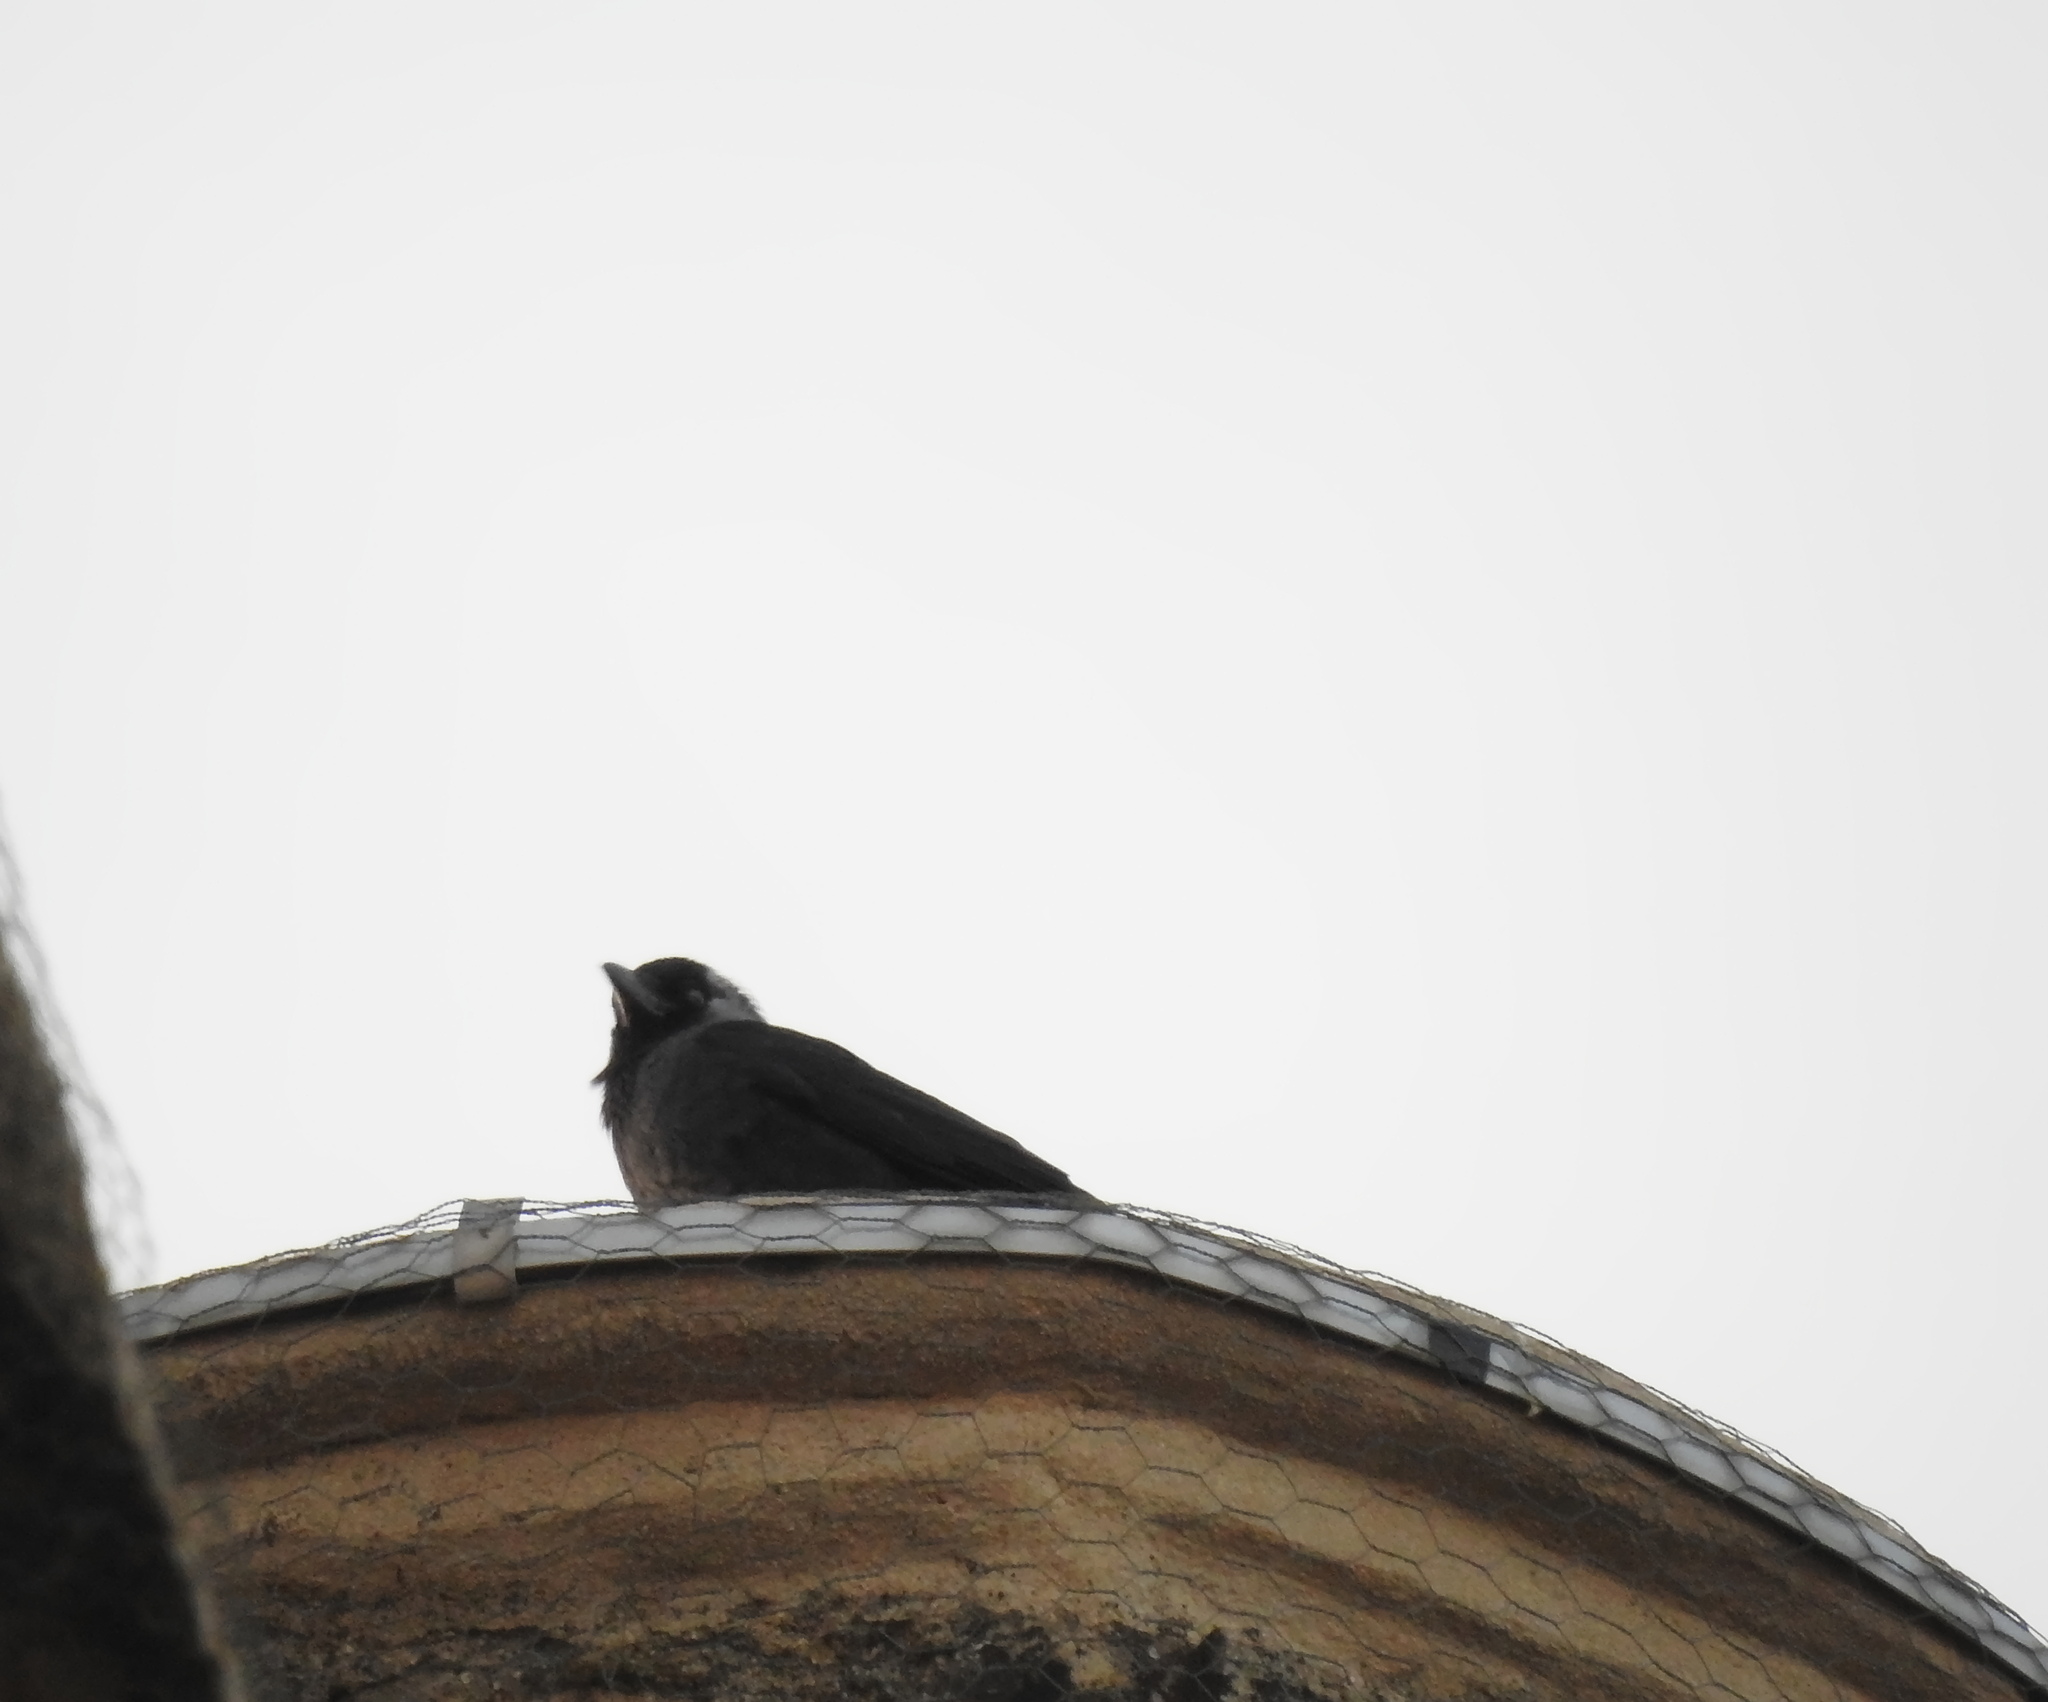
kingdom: Animalia
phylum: Chordata
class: Aves
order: Passeriformes
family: Corvidae
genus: Coloeus
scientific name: Coloeus monedula
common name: Western jackdaw
